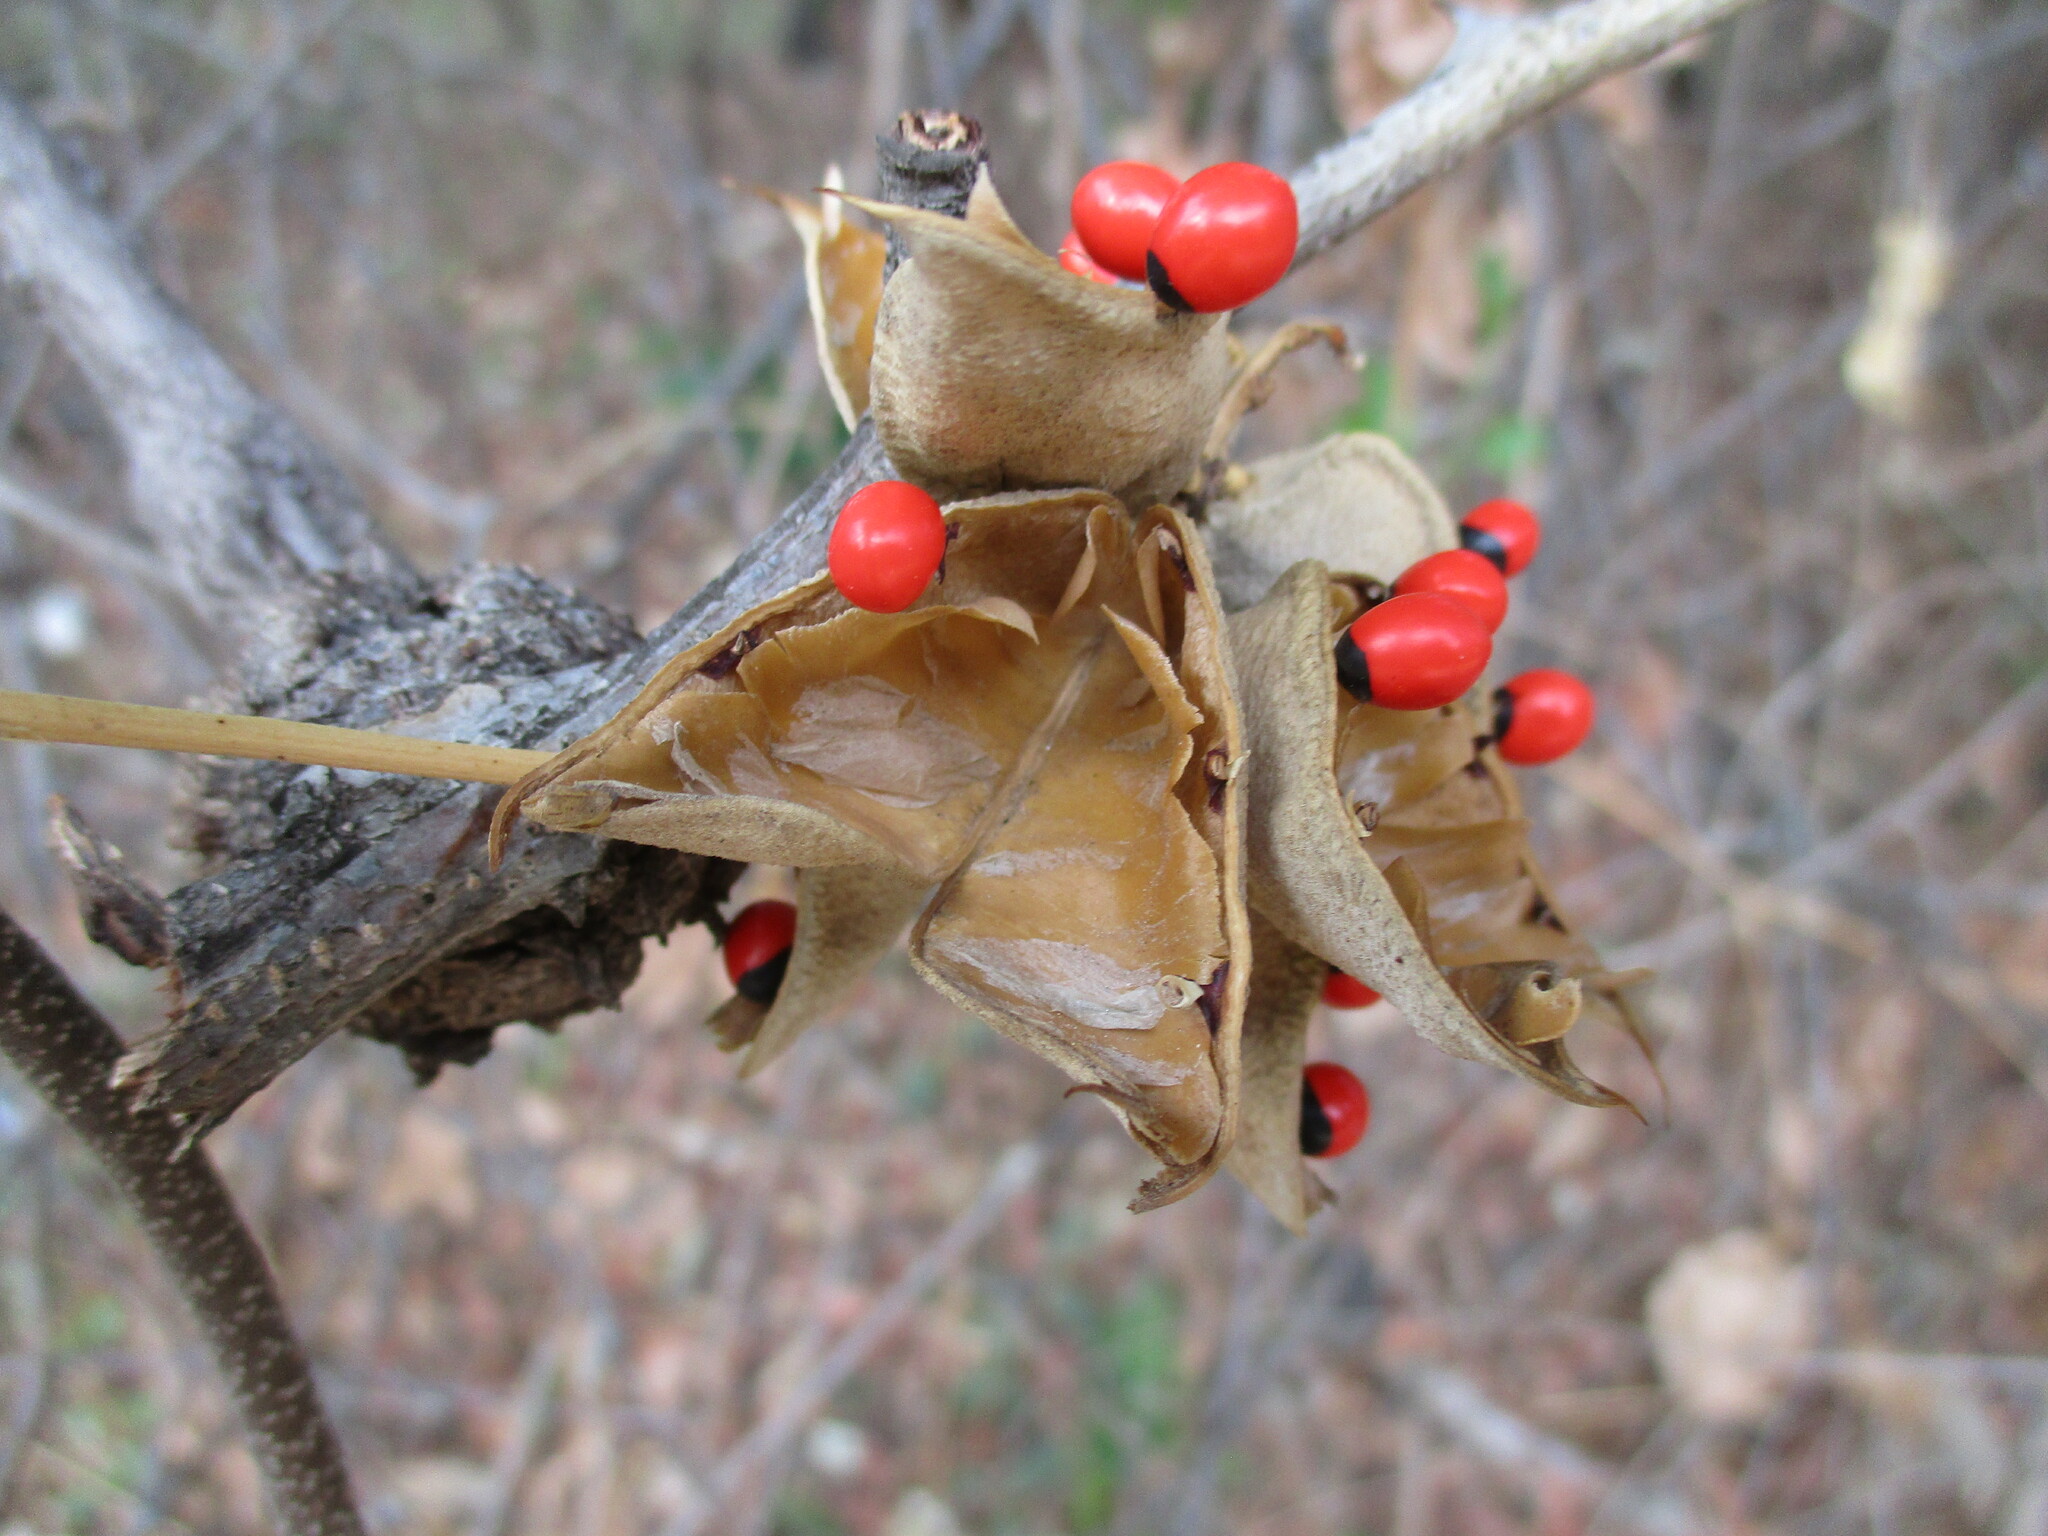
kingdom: Plantae
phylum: Tracheophyta
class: Magnoliopsida
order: Fabales
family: Fabaceae
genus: Abrus
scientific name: Abrus precatorius
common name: Rosarypea
